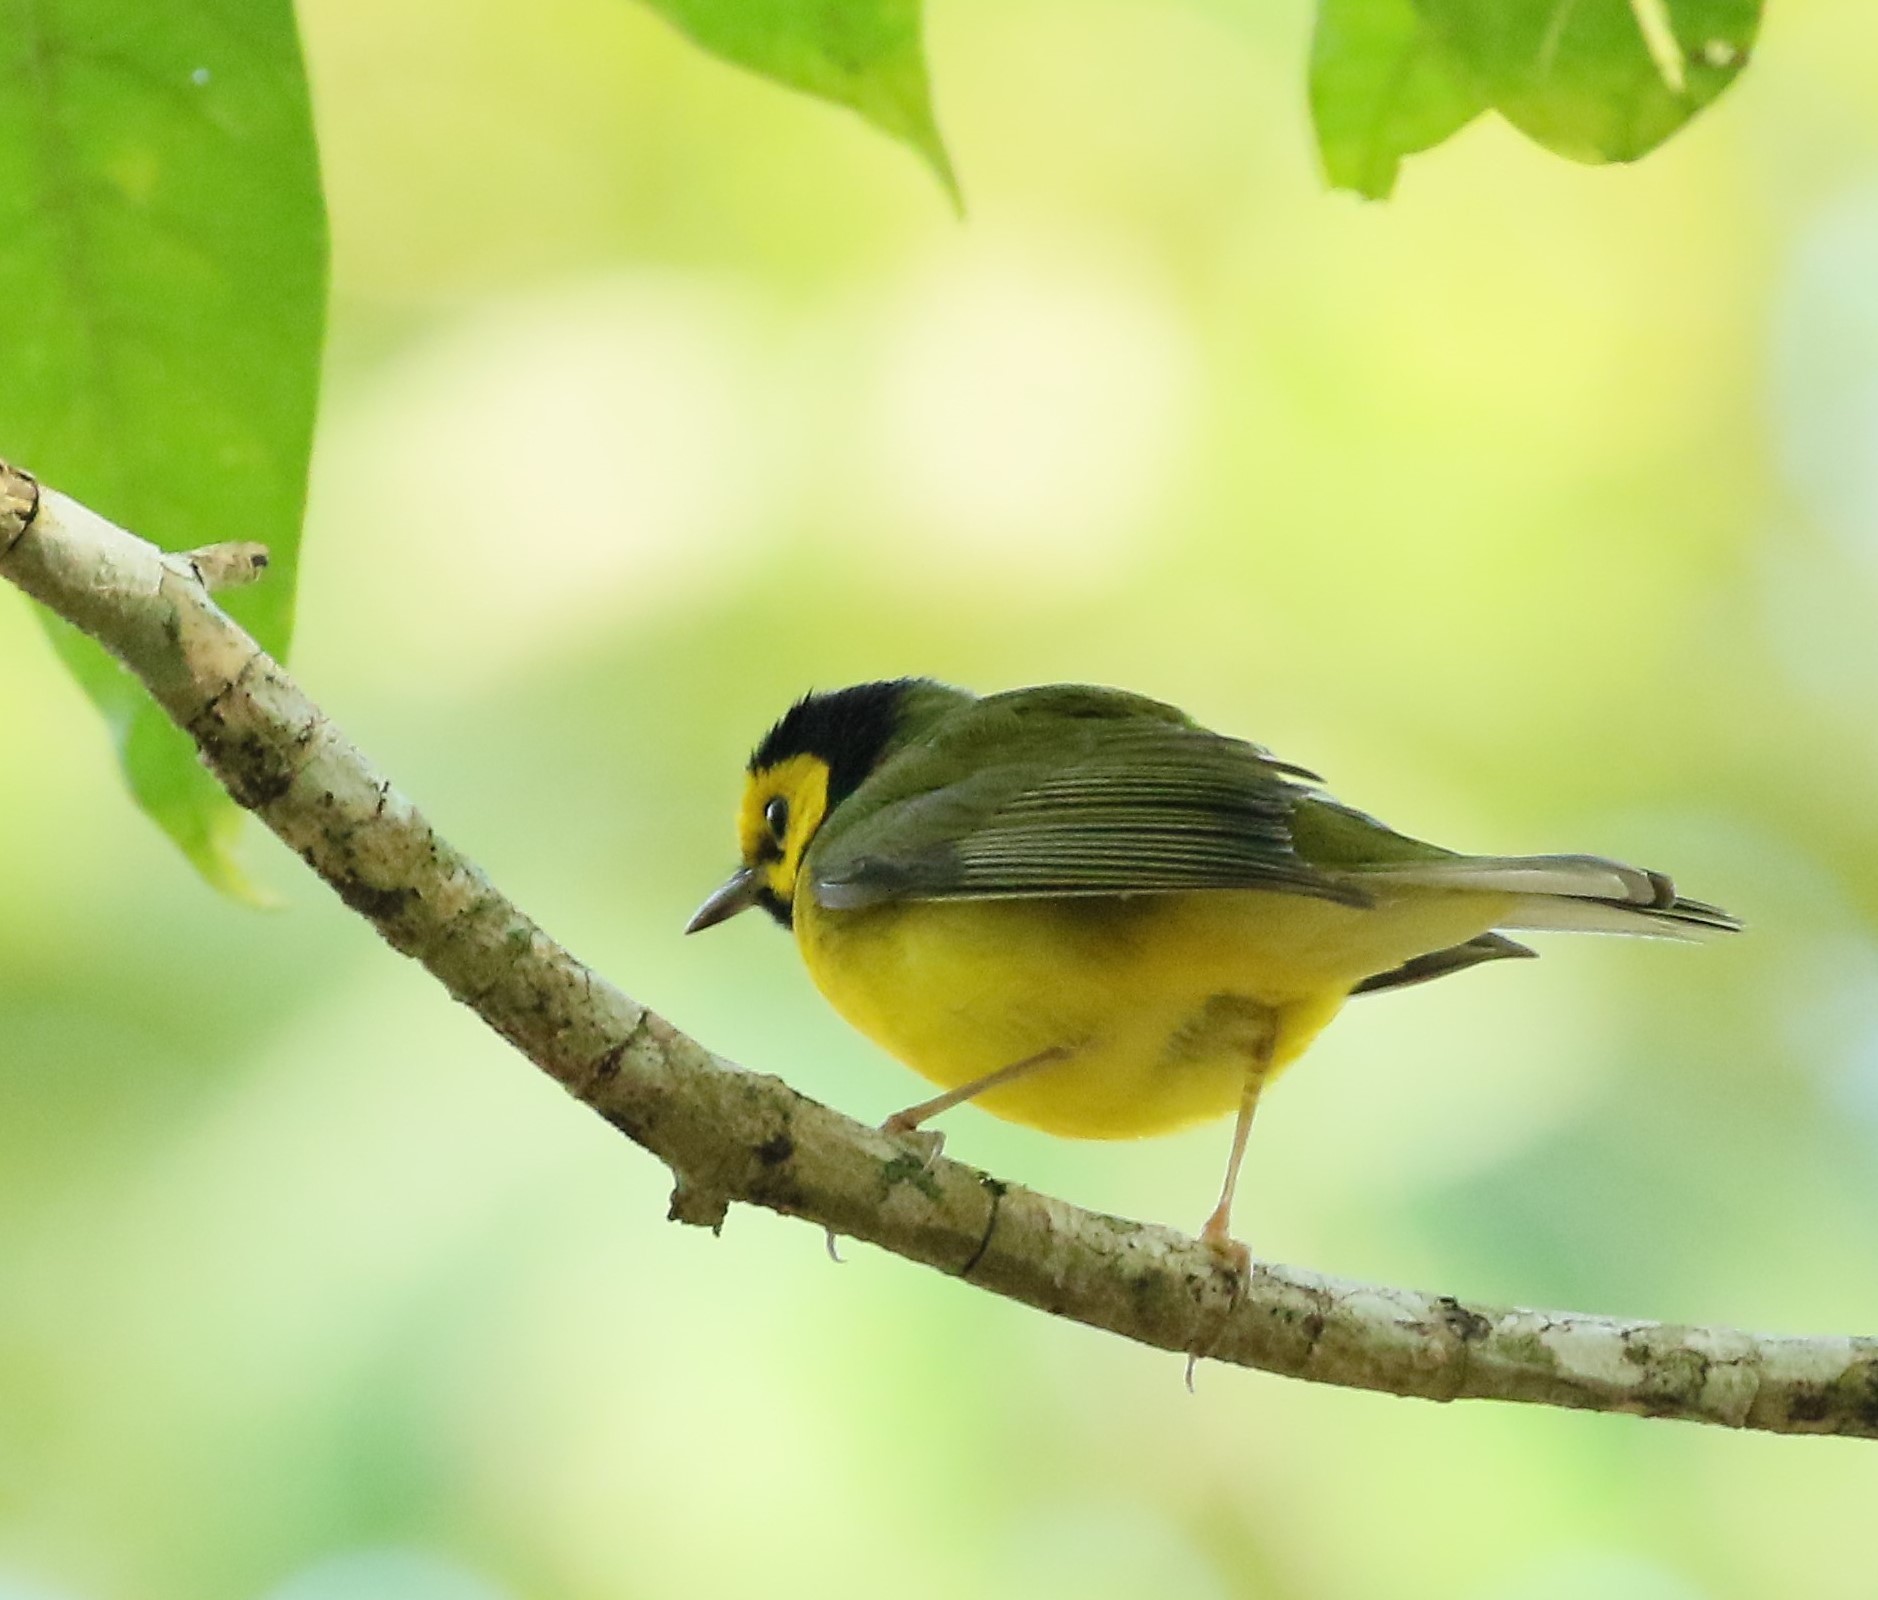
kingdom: Animalia
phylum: Chordata
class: Aves
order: Passeriformes
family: Parulidae
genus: Setophaga
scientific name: Setophaga citrina
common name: Hooded warbler
